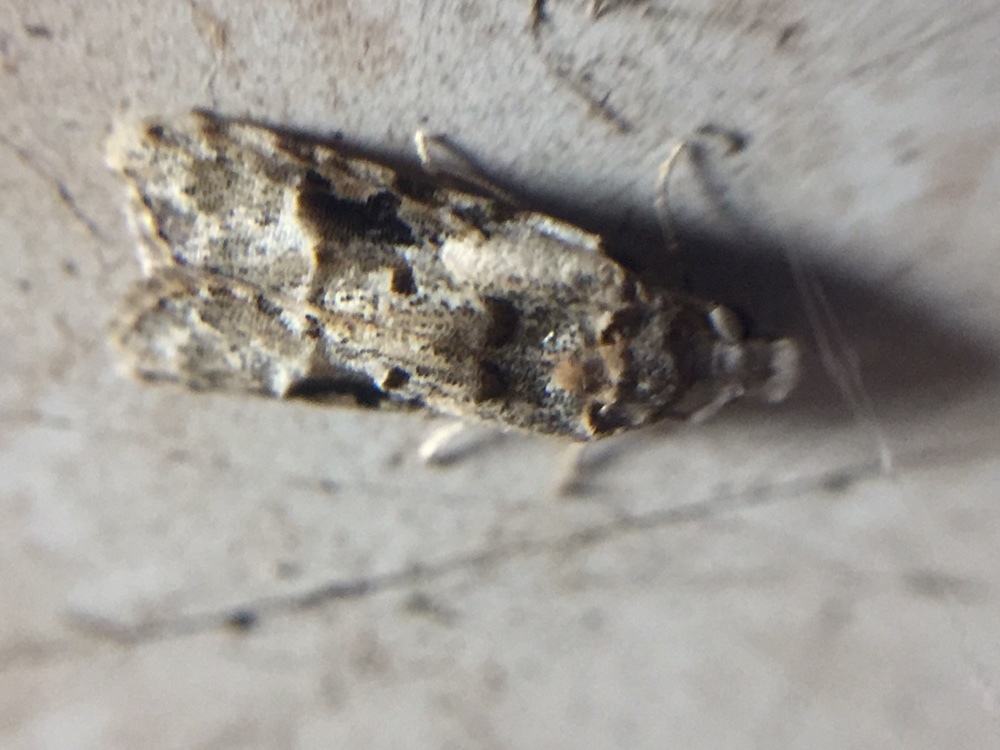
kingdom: Animalia
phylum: Arthropoda
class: Insecta
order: Lepidoptera
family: Carposinidae
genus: Coscinoptycha
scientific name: Coscinoptycha improbana
